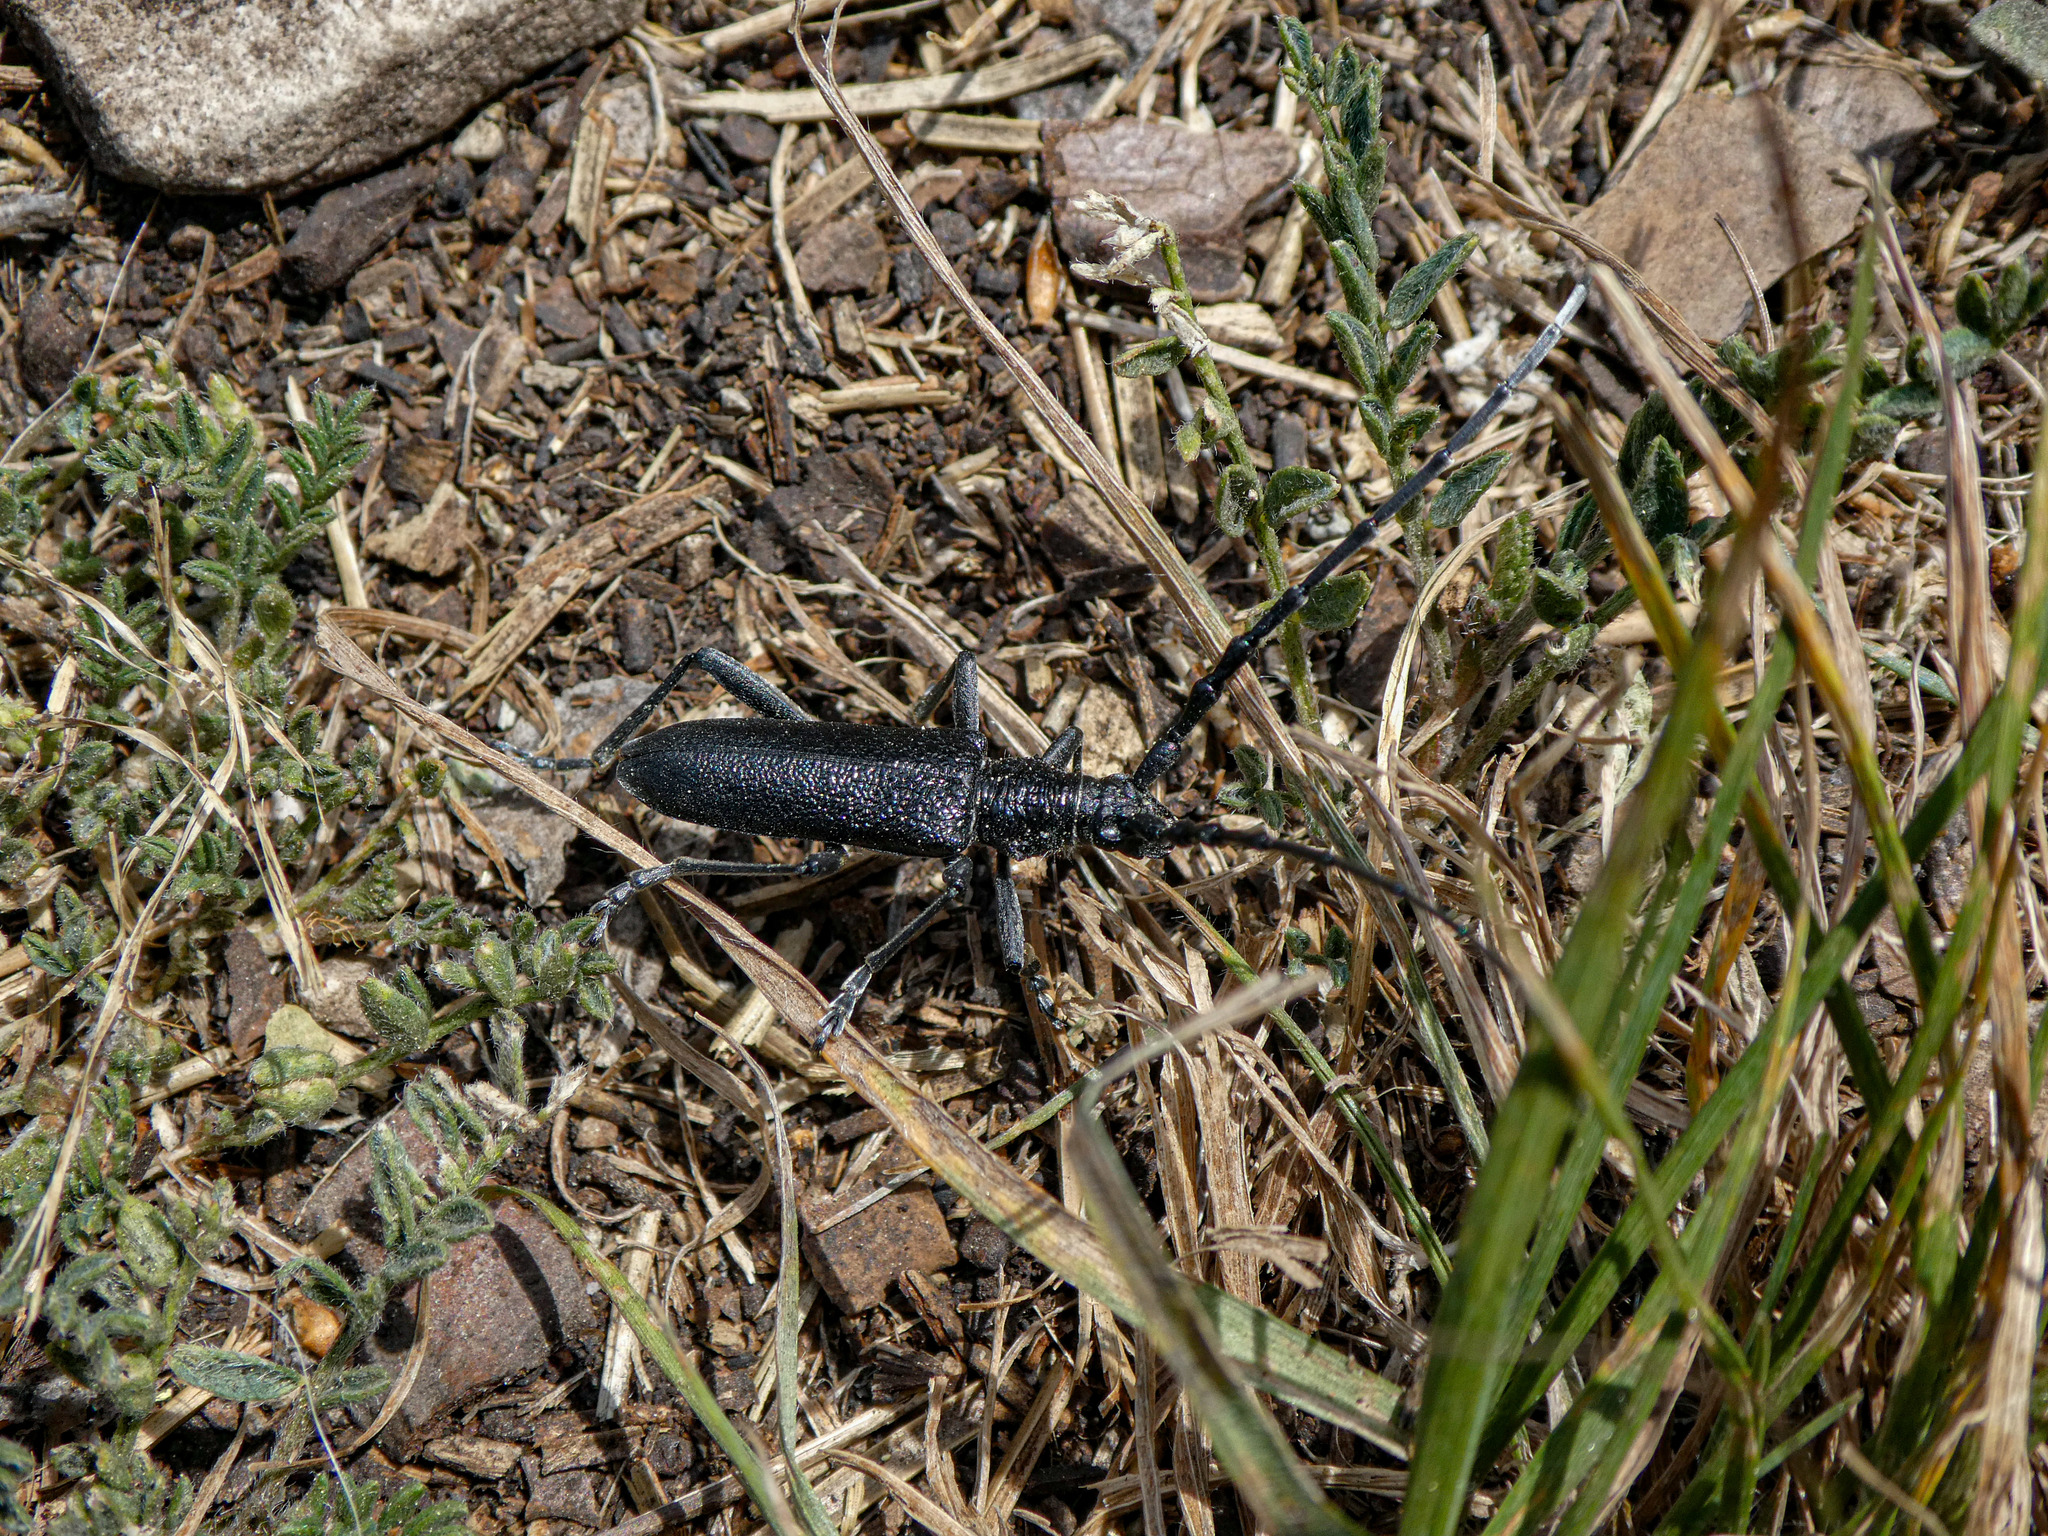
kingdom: Animalia
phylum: Arthropoda
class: Insecta
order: Coleoptera
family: Cerambycidae
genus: Cerambyx
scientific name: Cerambyx scopolii
